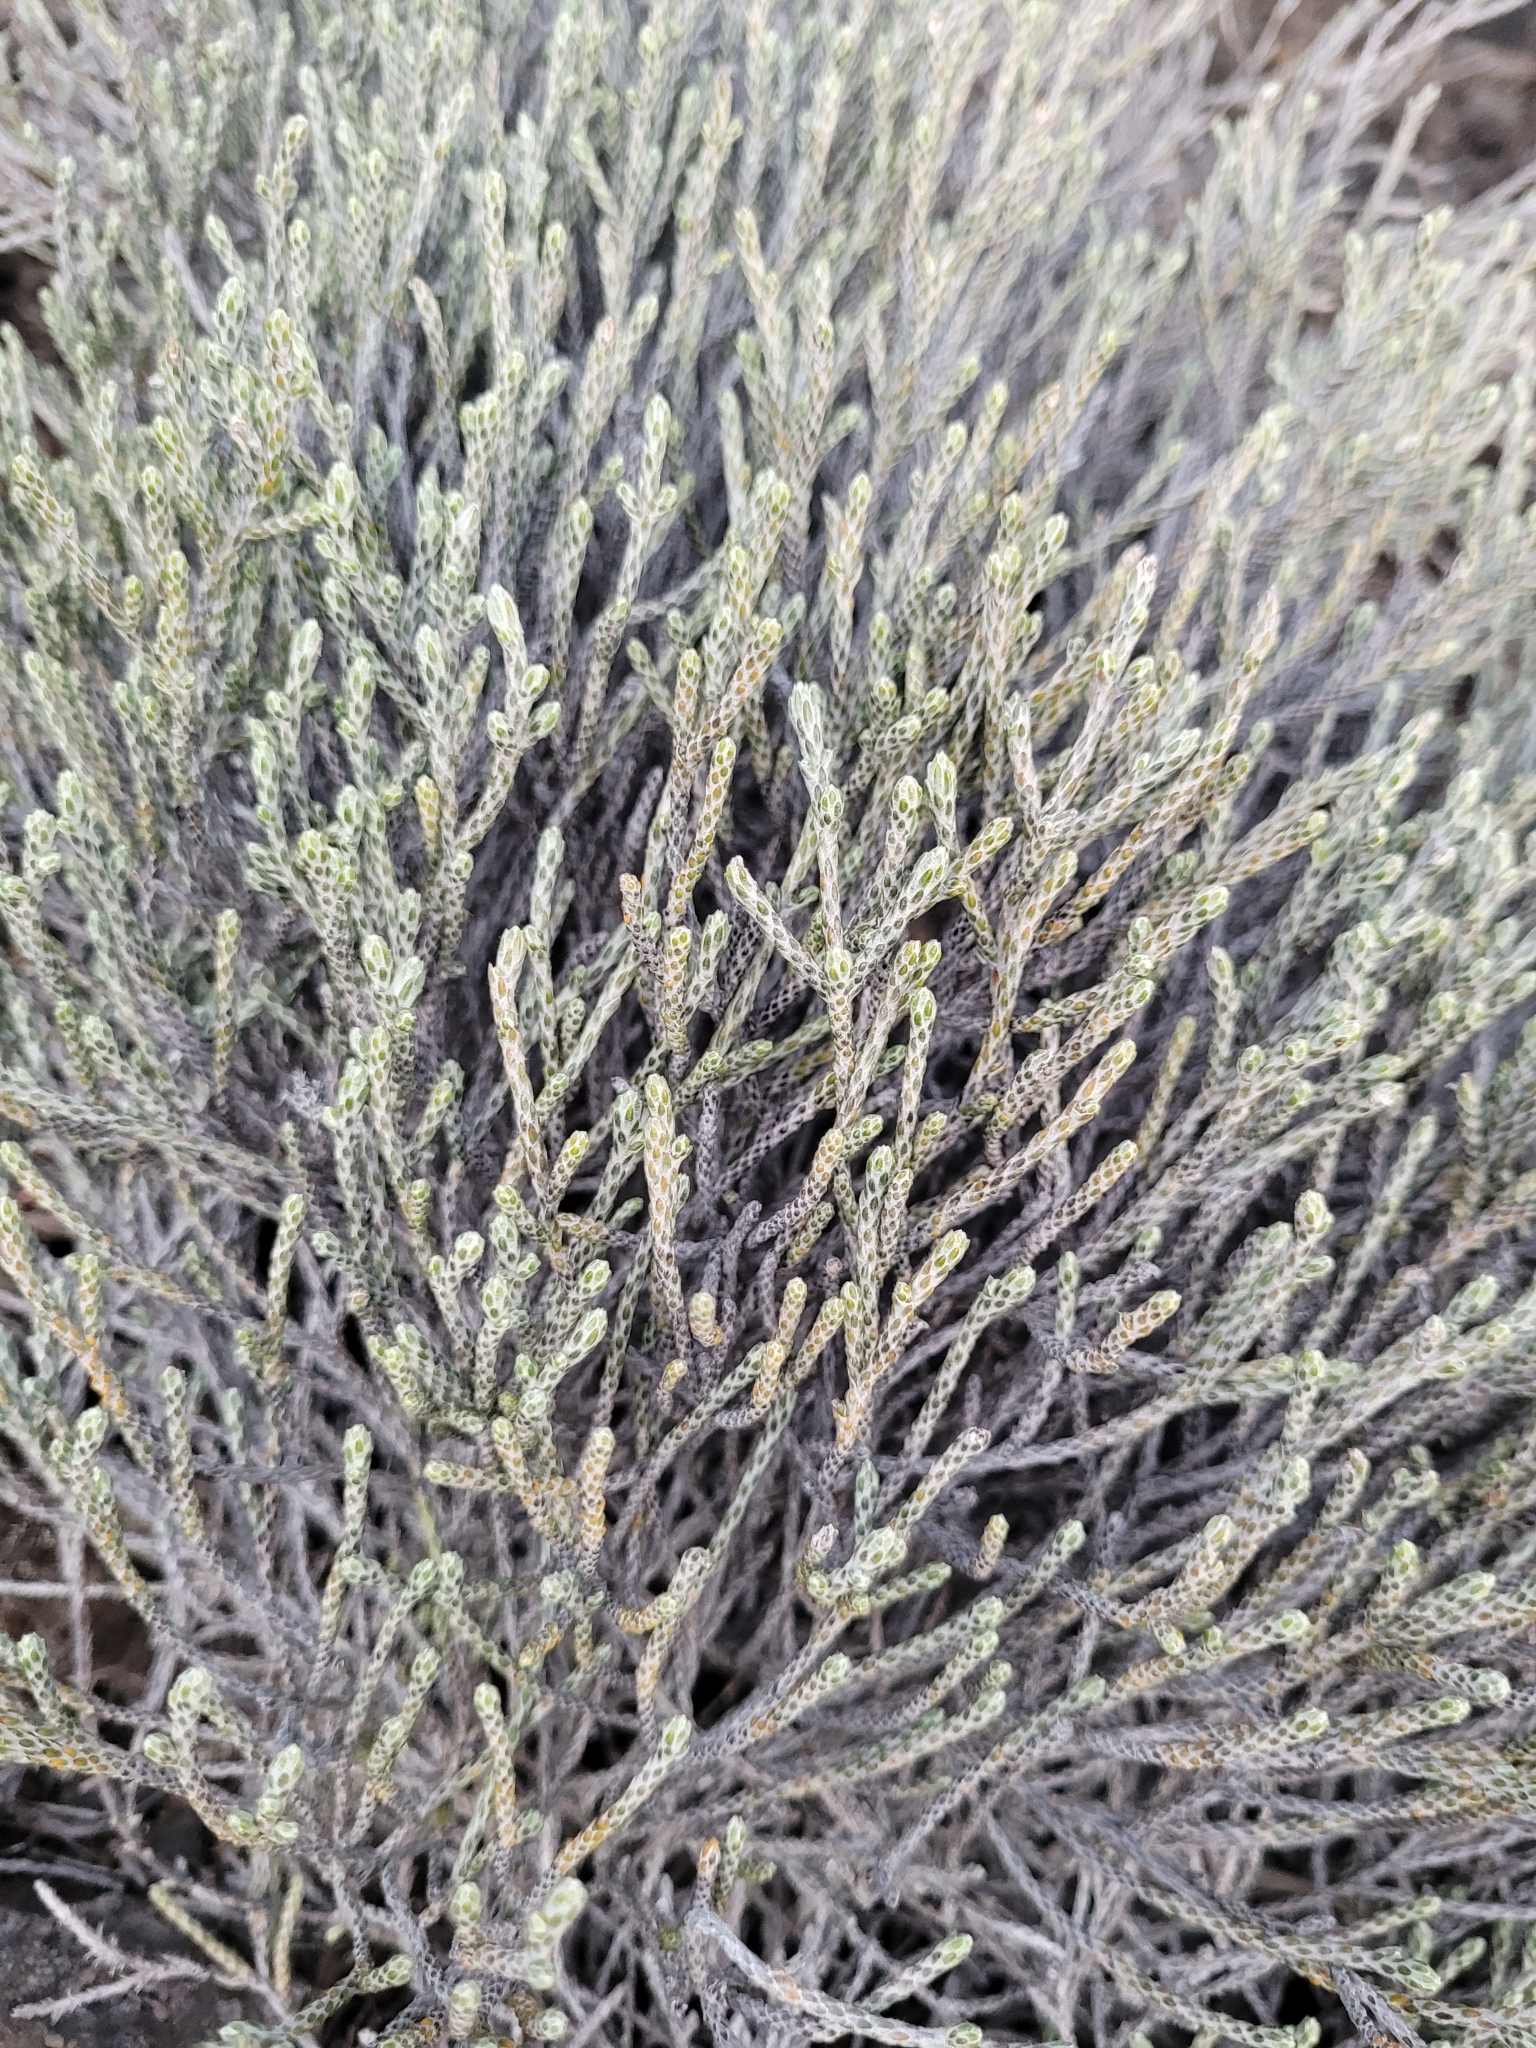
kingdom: Plantae
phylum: Tracheophyta
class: Magnoliopsida
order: Asterales
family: Asteraceae
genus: Seriphium
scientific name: Seriphium passerinoides
